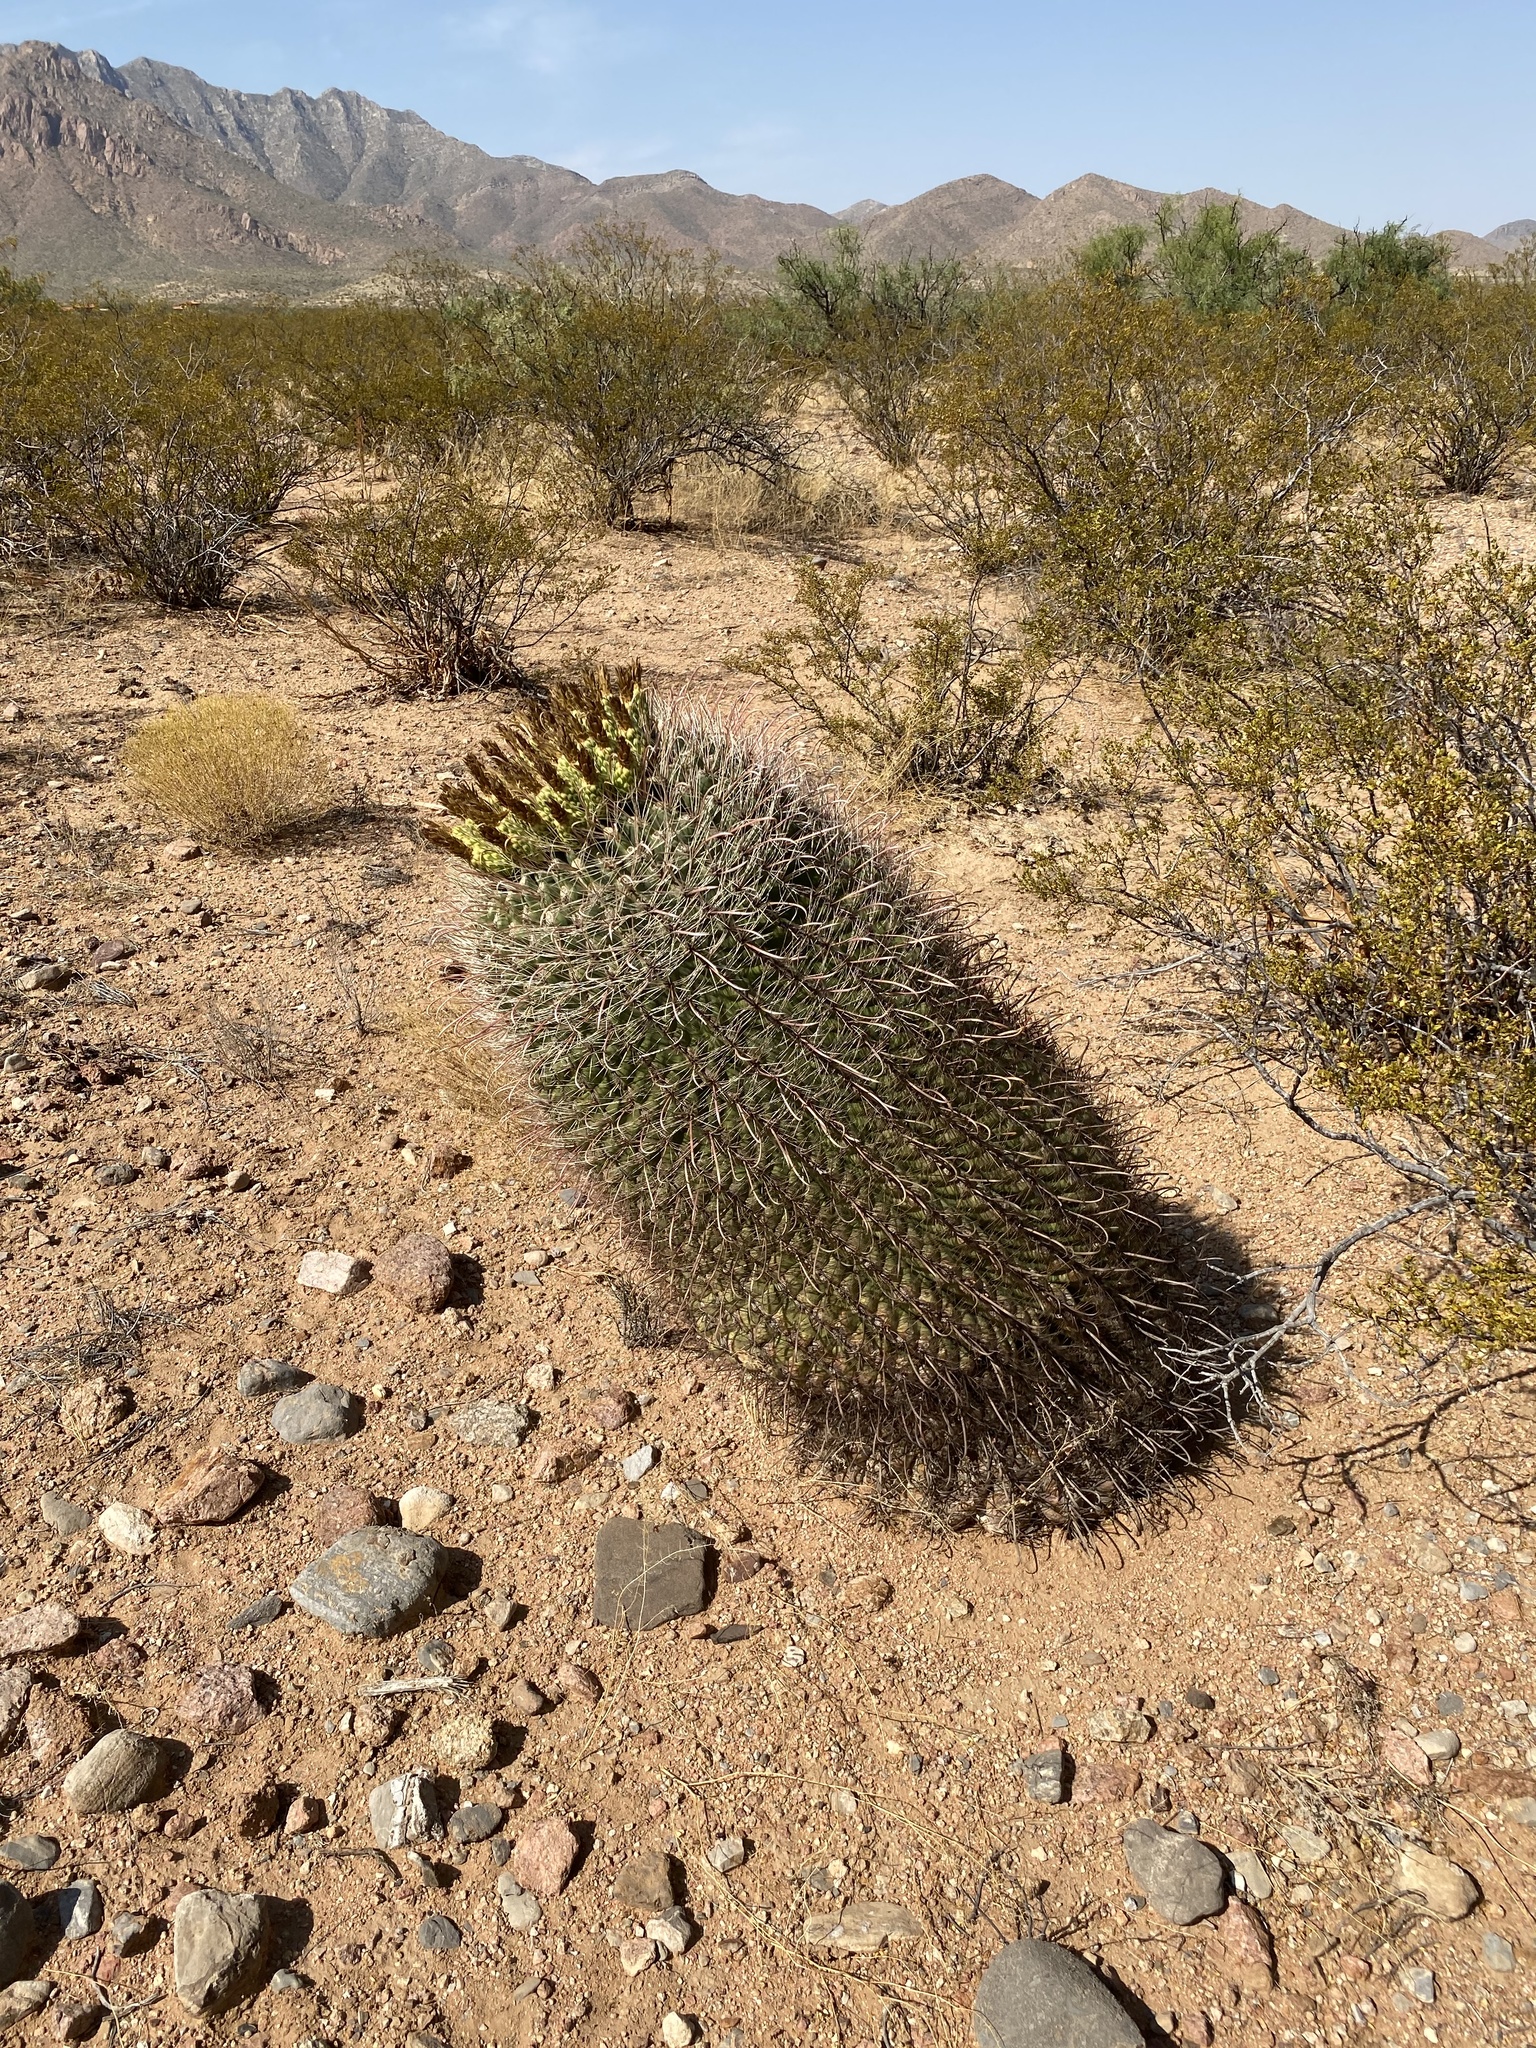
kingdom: Plantae
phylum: Tracheophyta
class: Magnoliopsida
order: Caryophyllales
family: Cactaceae
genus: Ferocactus
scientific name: Ferocactus wislizeni
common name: Candy barrel cactus
